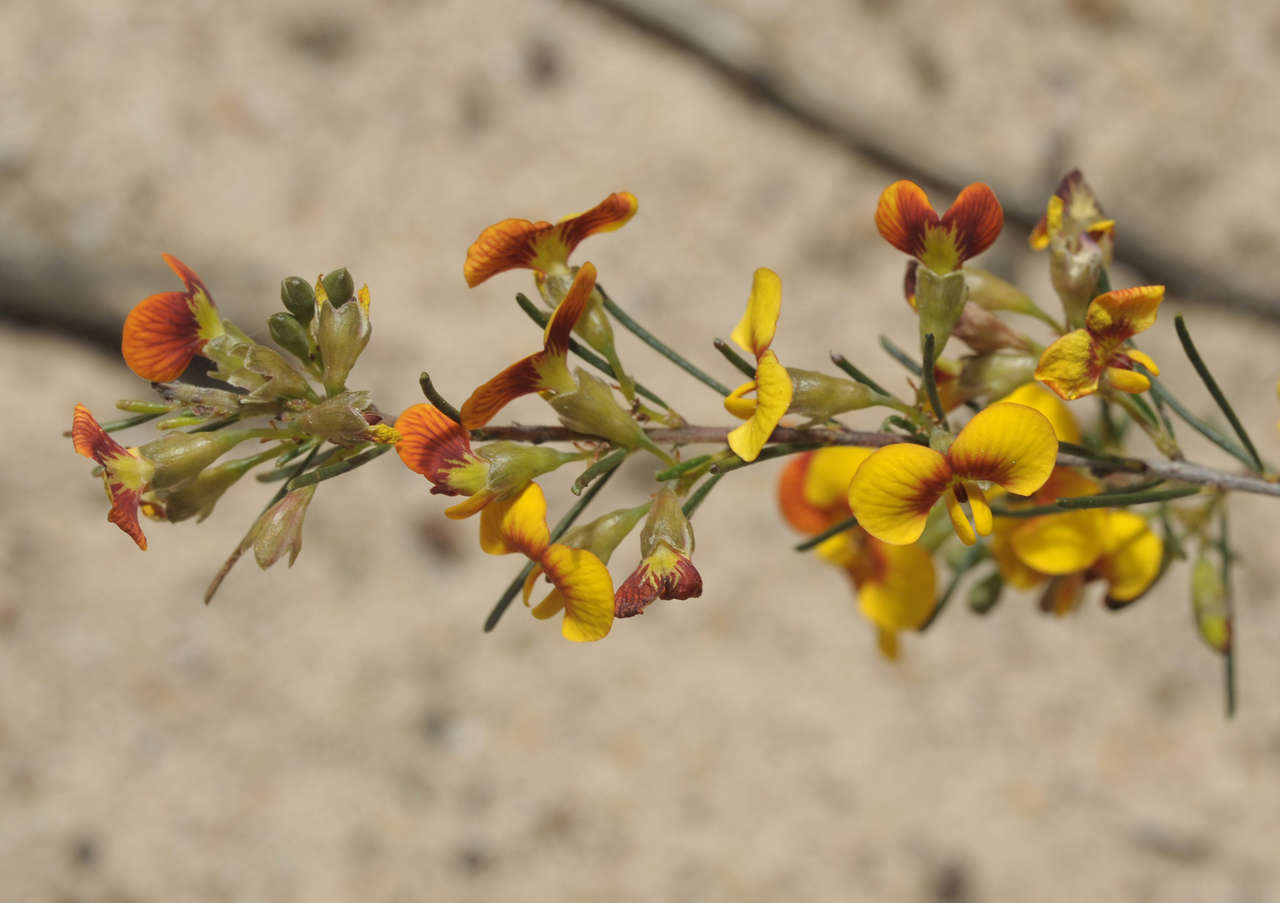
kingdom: Plantae
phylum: Tracheophyta
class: Magnoliopsida
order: Fabales
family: Fabaceae
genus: Dillwynia
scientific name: Dillwynia glaberrima
